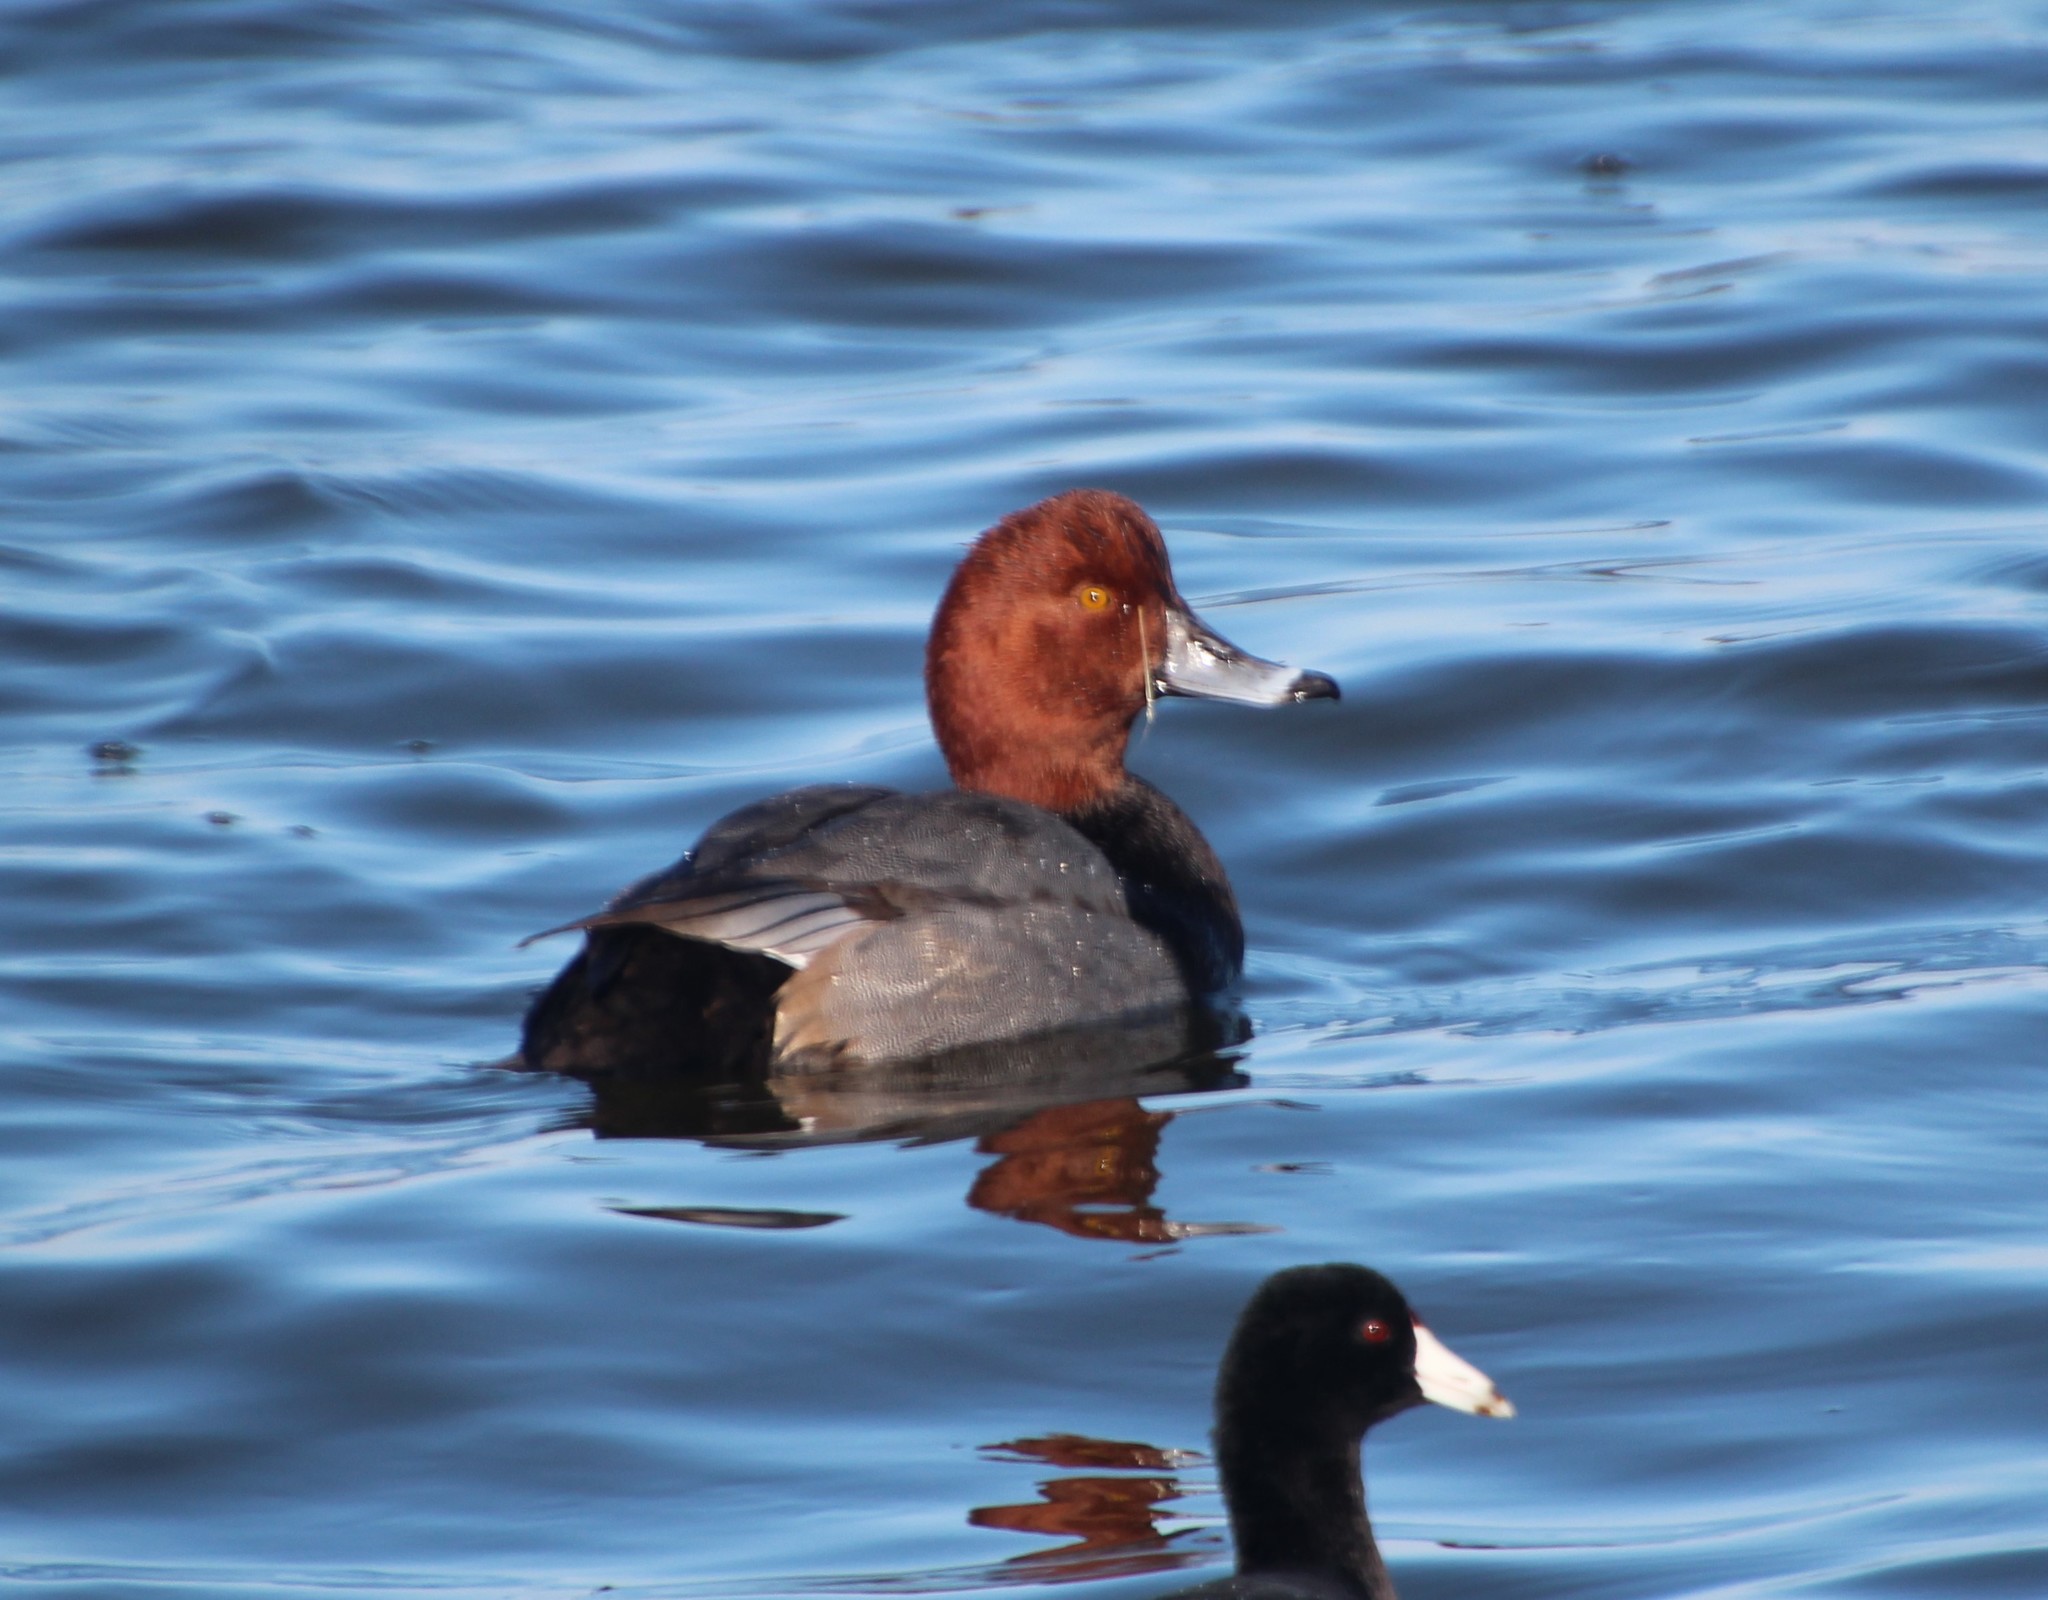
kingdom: Animalia
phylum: Chordata
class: Aves
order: Anseriformes
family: Anatidae
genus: Aythya
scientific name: Aythya americana
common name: Redhead
